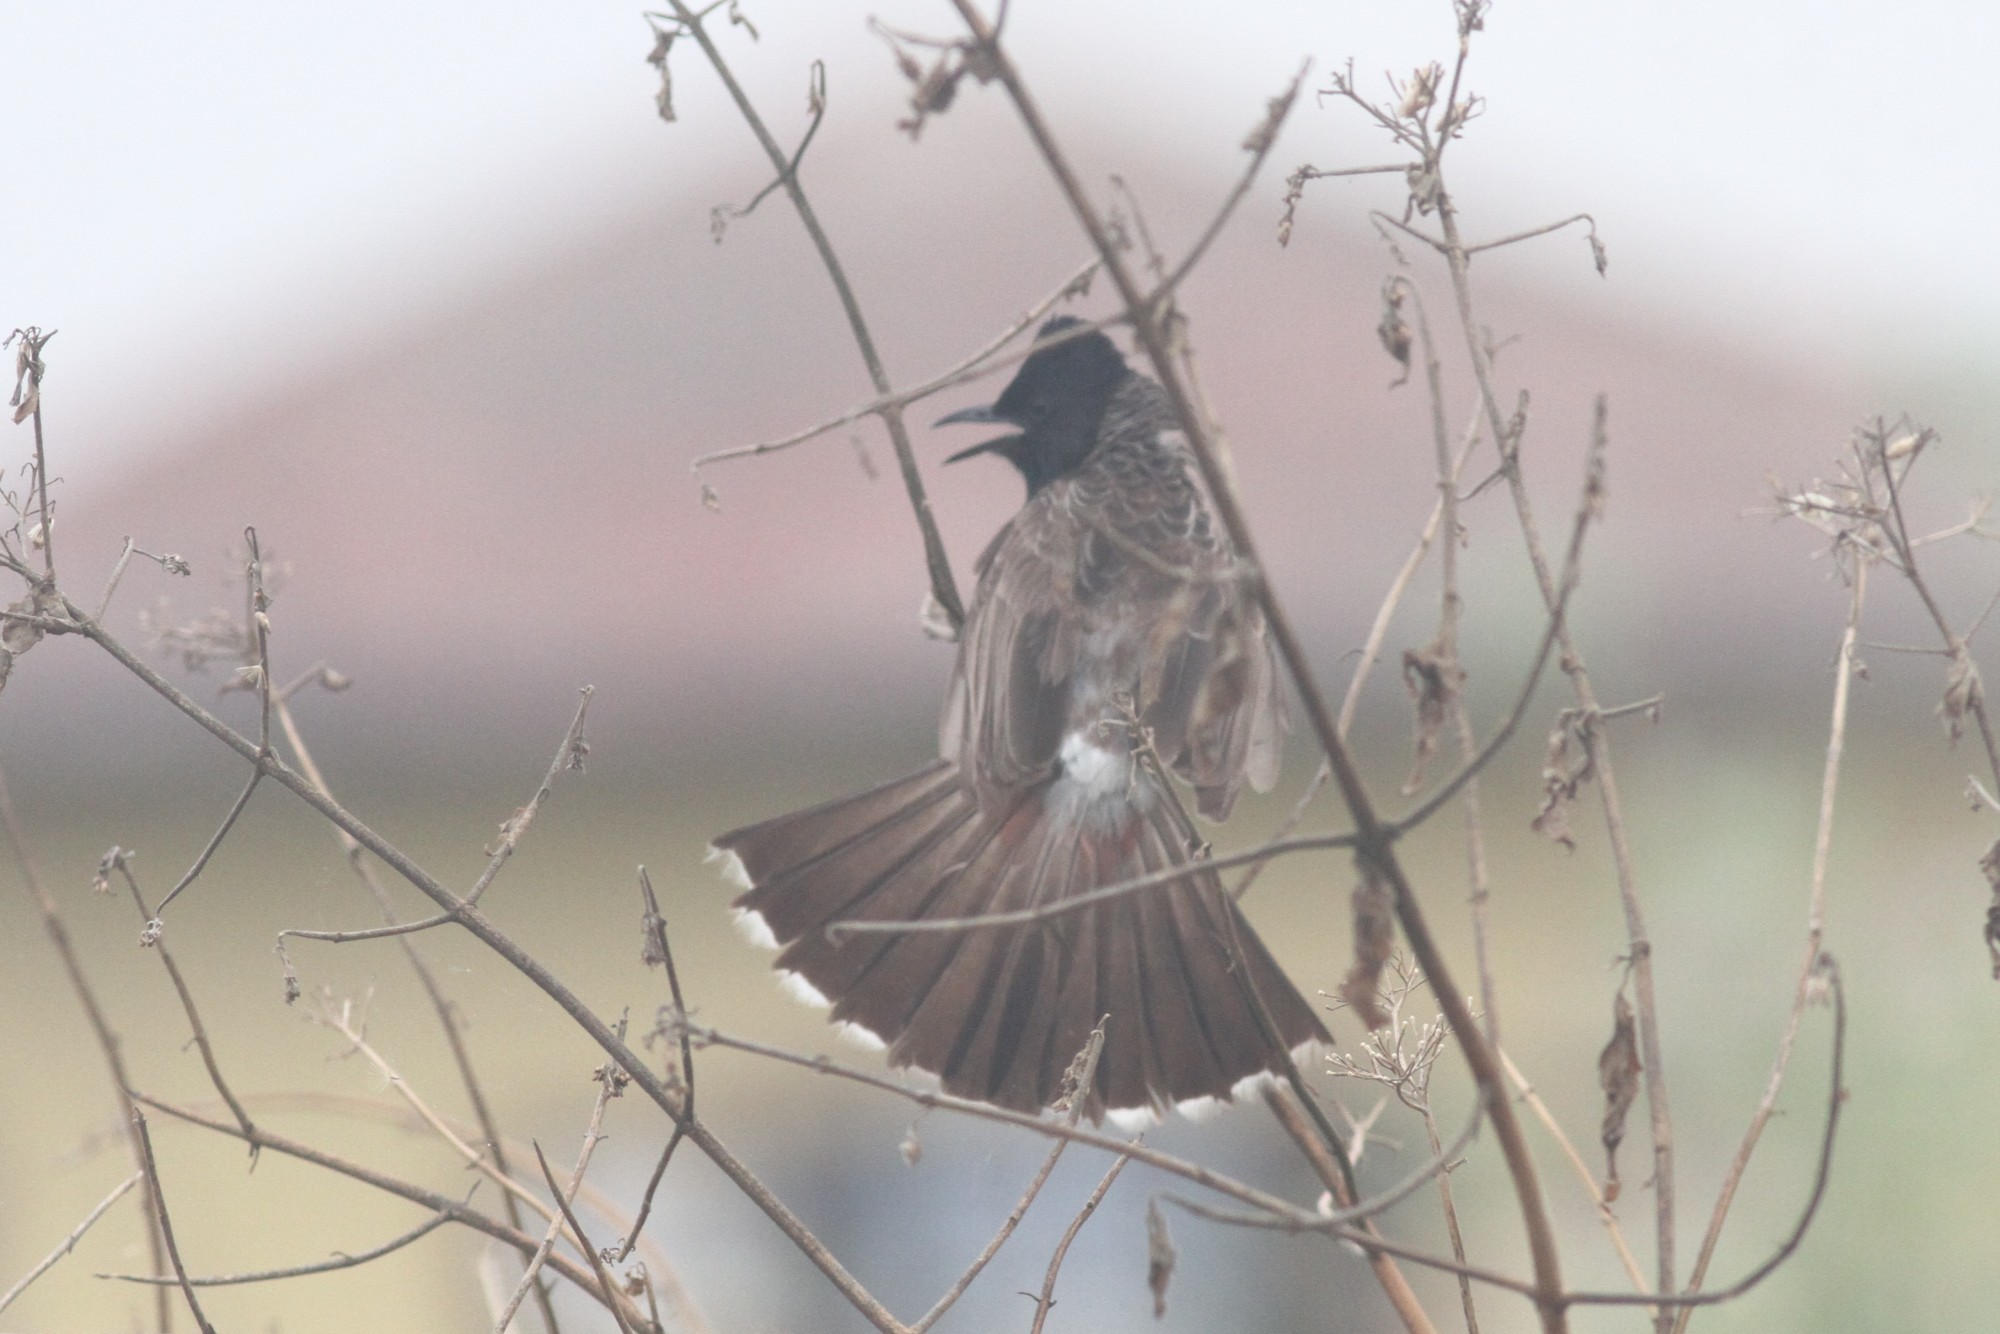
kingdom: Animalia
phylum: Chordata
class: Aves
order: Passeriformes
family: Pycnonotidae
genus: Pycnonotus
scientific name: Pycnonotus cafer
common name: Red-vented bulbul
